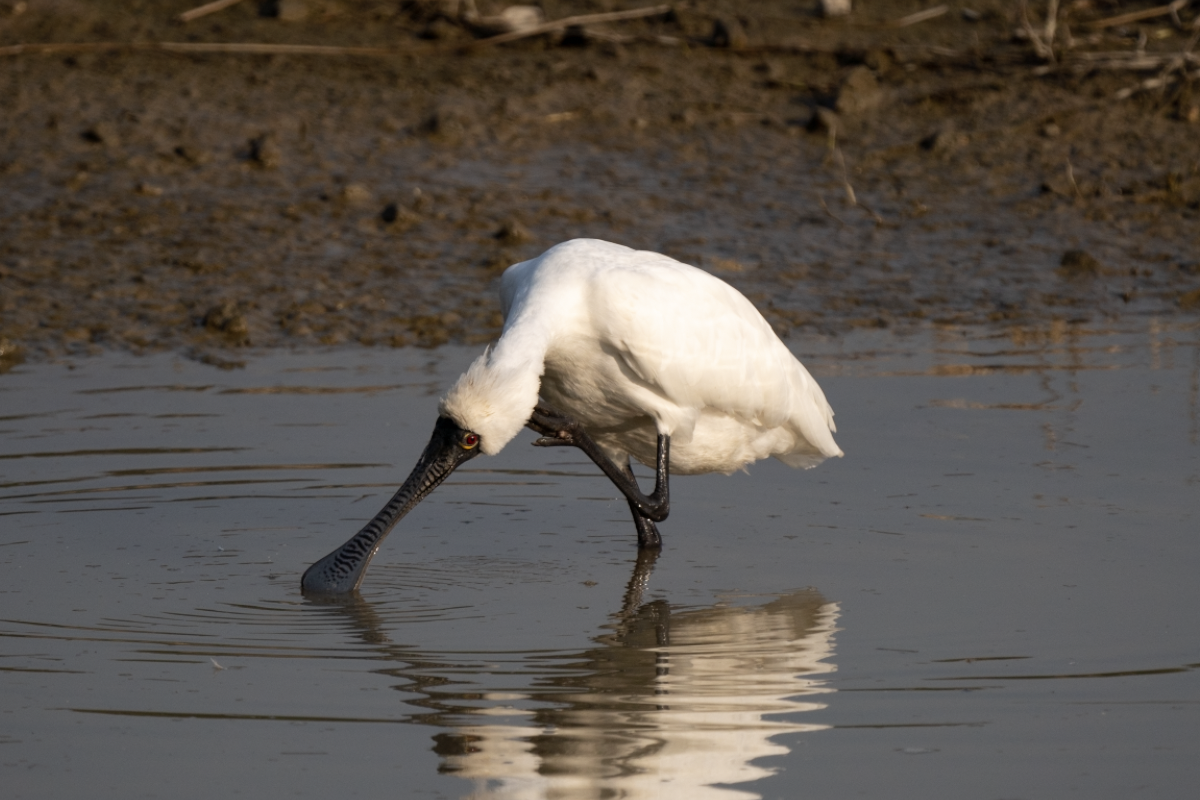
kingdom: Animalia
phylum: Chordata
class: Aves
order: Pelecaniformes
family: Threskiornithidae
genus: Platalea
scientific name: Platalea minor
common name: Black-faced spoonbill
